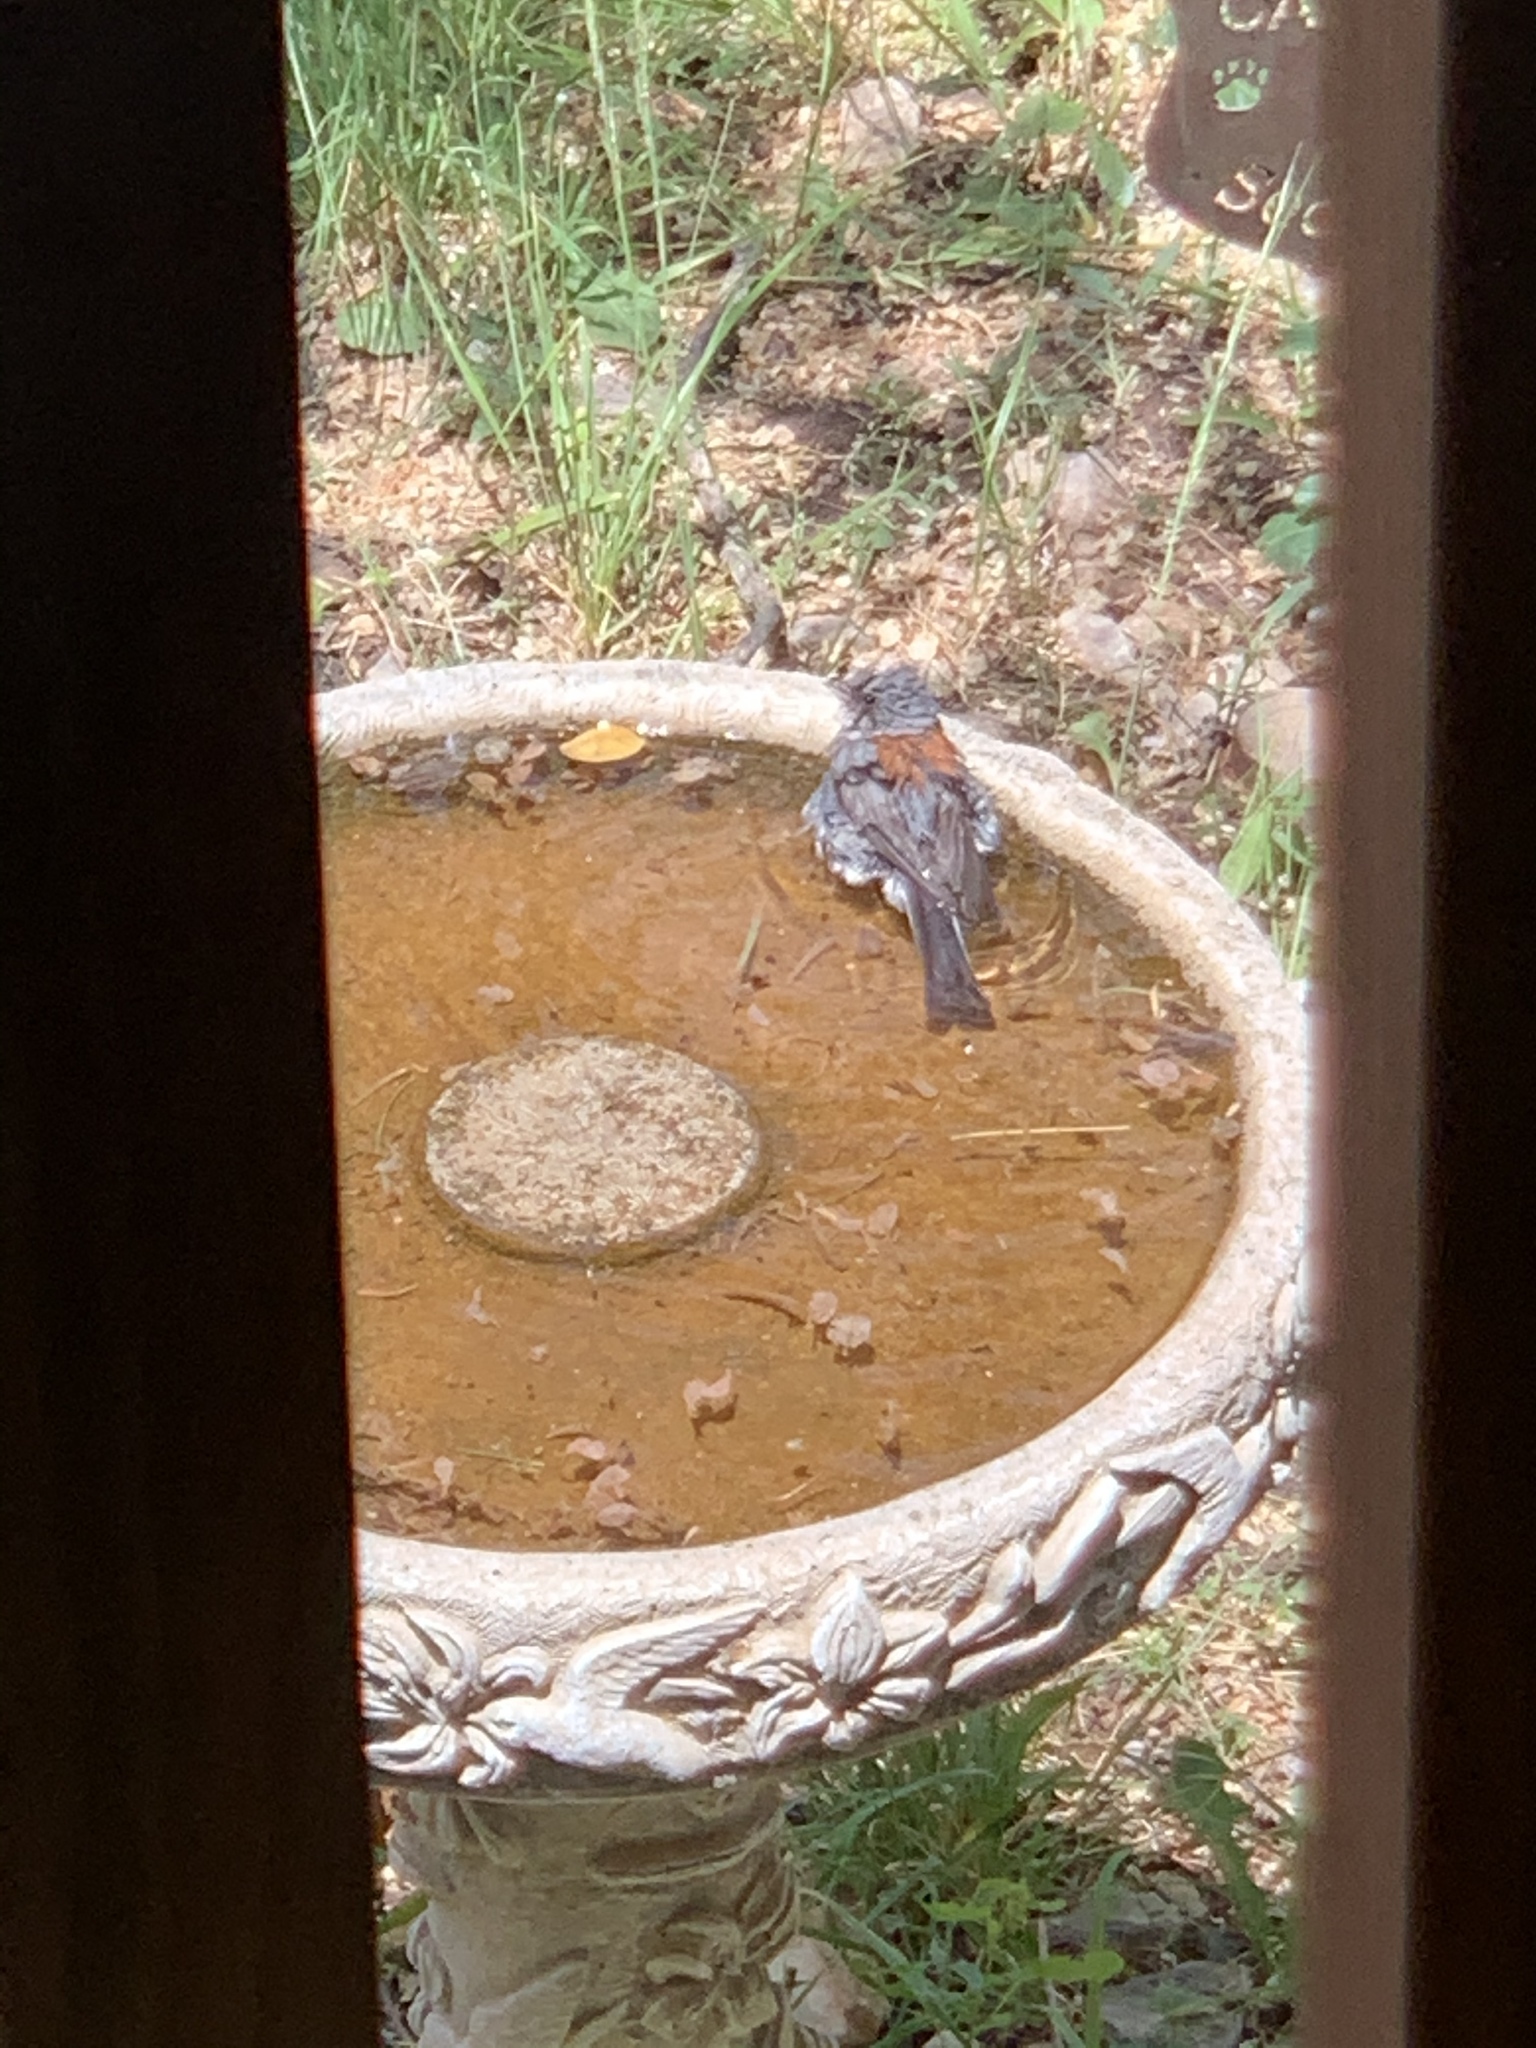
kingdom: Animalia
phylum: Chordata
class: Aves
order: Passeriformes
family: Passerellidae
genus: Junco
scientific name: Junco hyemalis
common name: Dark-eyed junco
